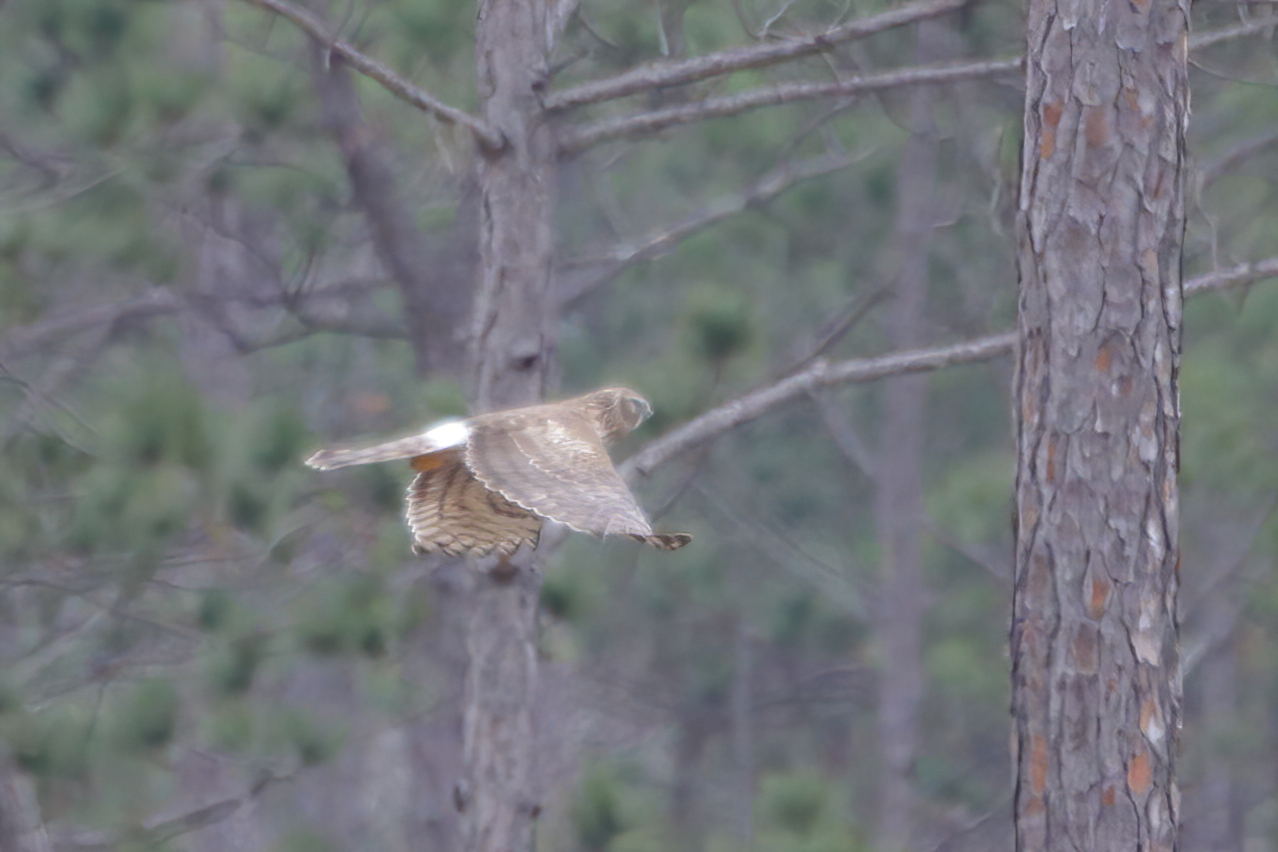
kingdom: Animalia
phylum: Chordata
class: Aves
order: Accipitriformes
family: Accipitridae
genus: Circus
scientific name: Circus cyaneus
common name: Hen harrier
